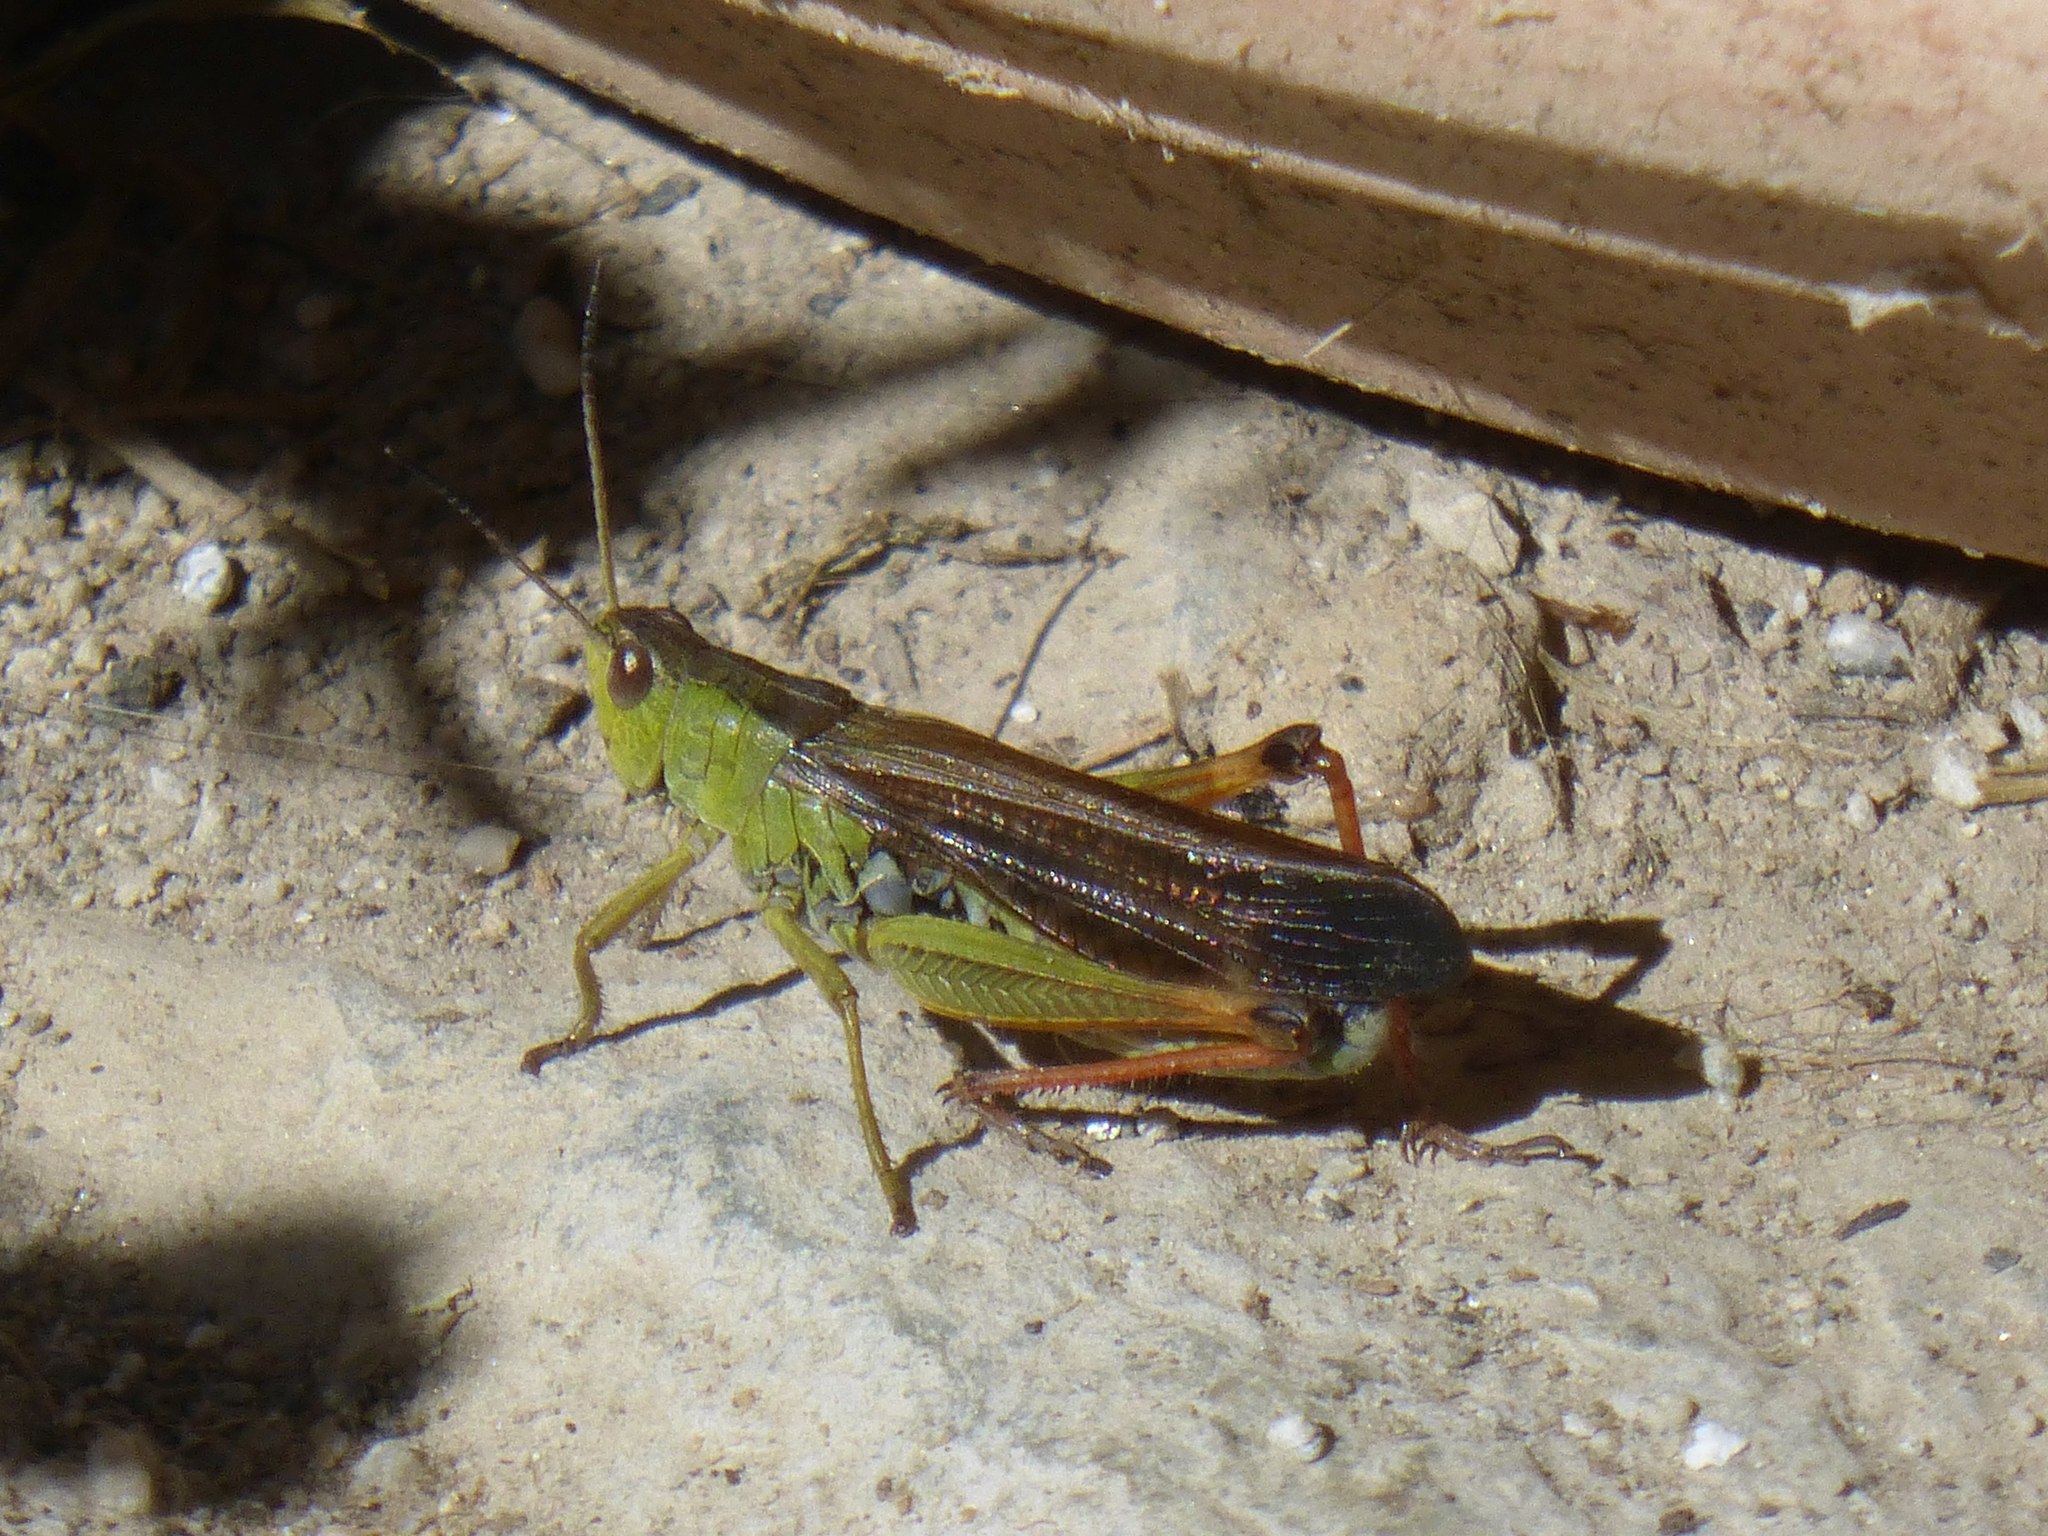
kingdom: Animalia
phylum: Arthropoda
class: Insecta
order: Orthoptera
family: Acrididae
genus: Stauroderus
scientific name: Stauroderus scalaris
